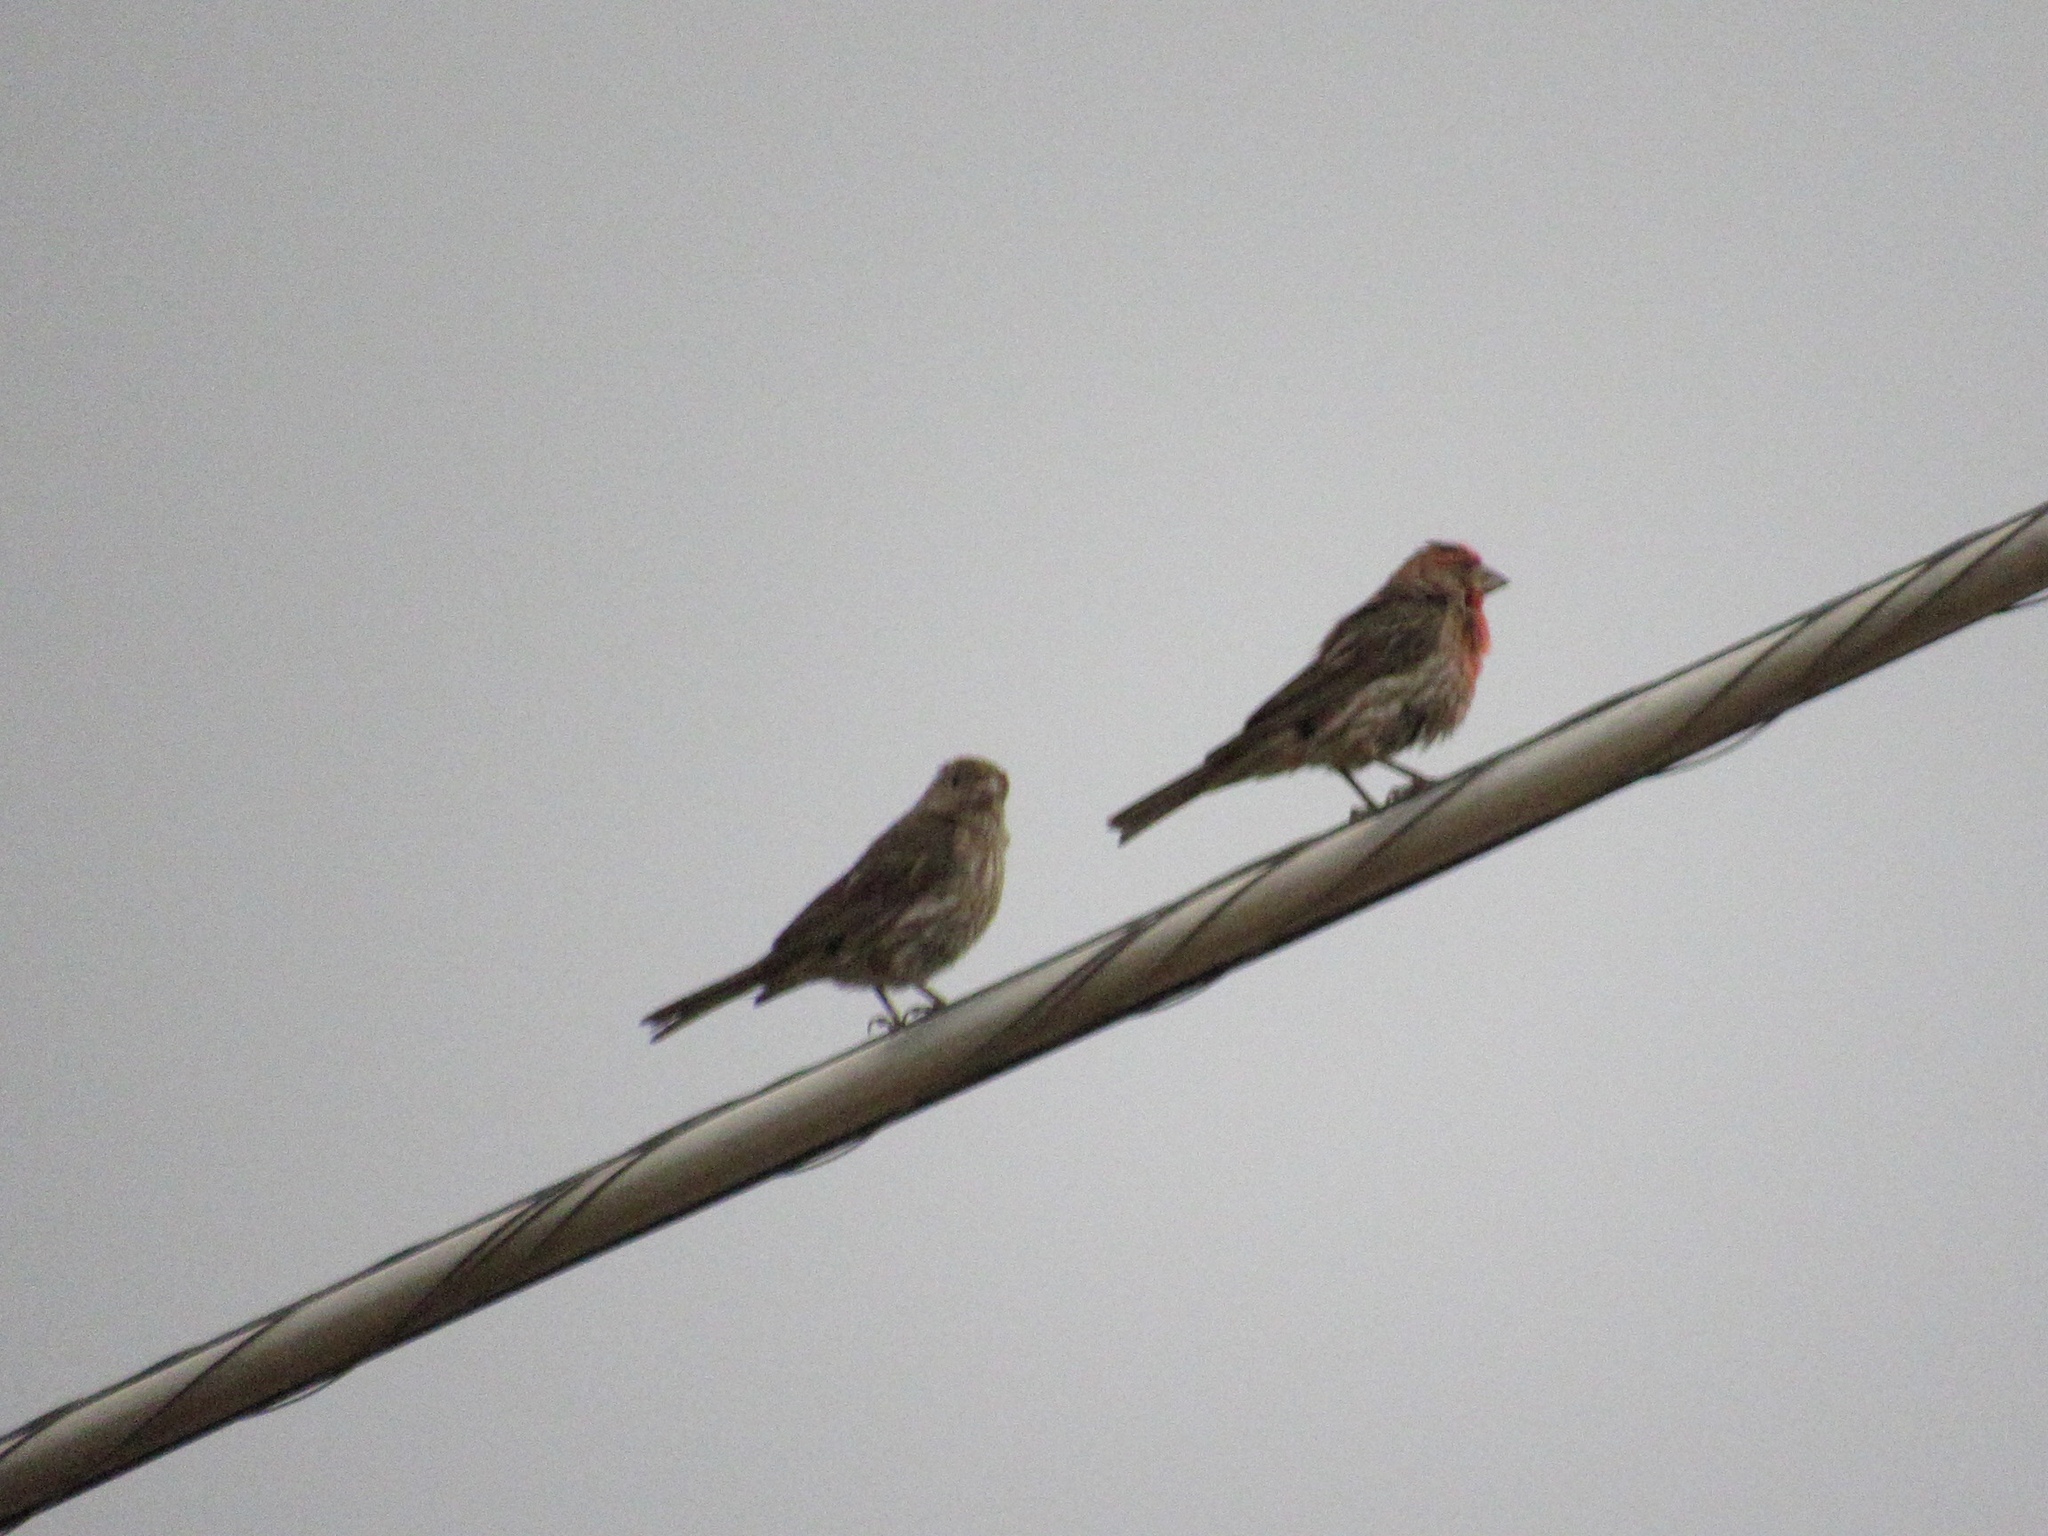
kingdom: Animalia
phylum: Chordata
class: Aves
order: Passeriformes
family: Fringillidae
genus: Haemorhous
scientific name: Haemorhous mexicanus
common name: House finch
